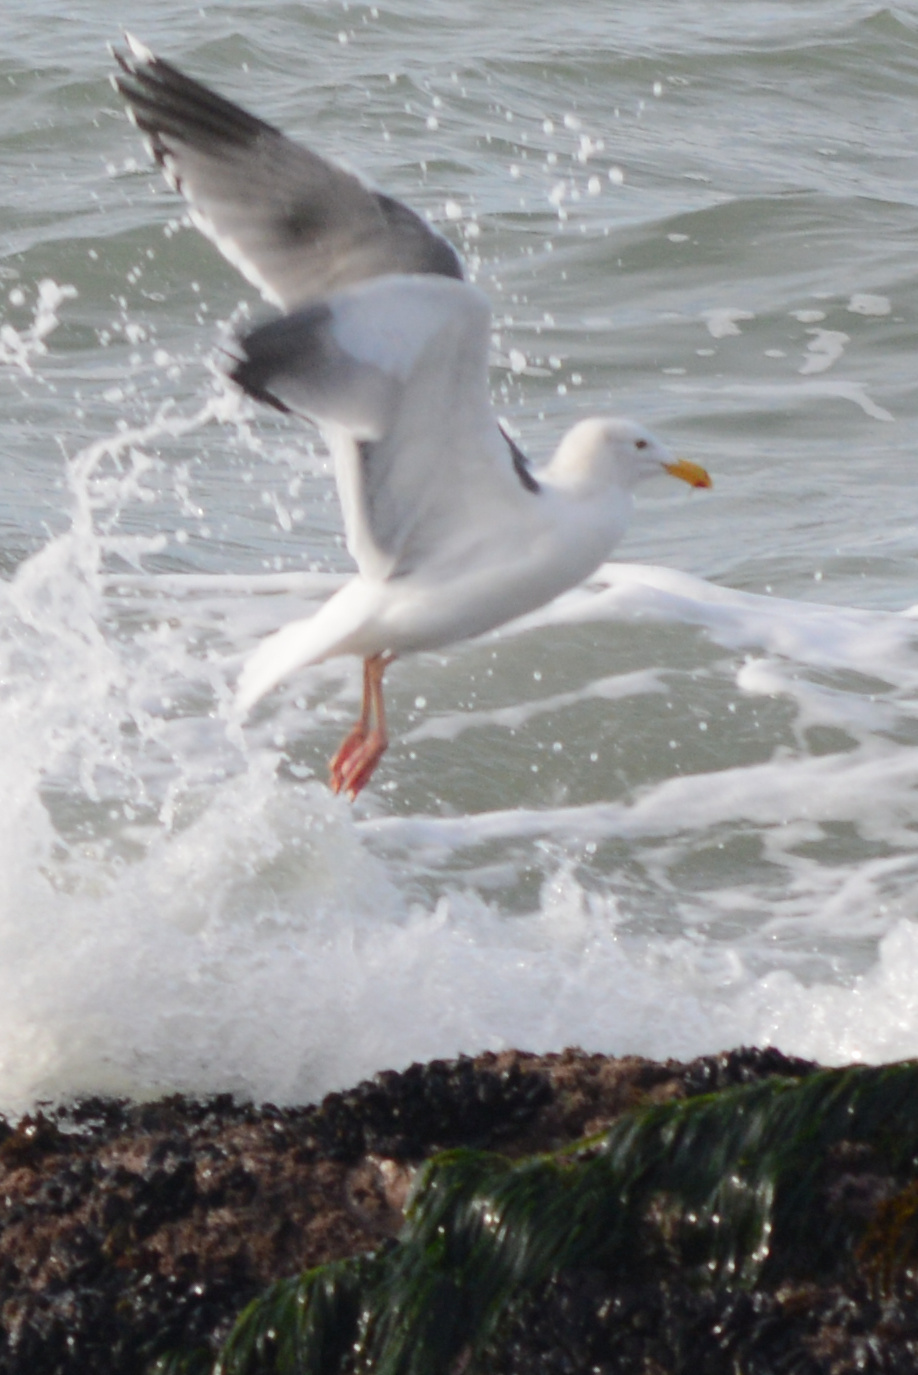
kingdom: Animalia
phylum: Chordata
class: Aves
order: Charadriiformes
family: Laridae
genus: Larus
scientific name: Larus occidentalis
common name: Western gull
